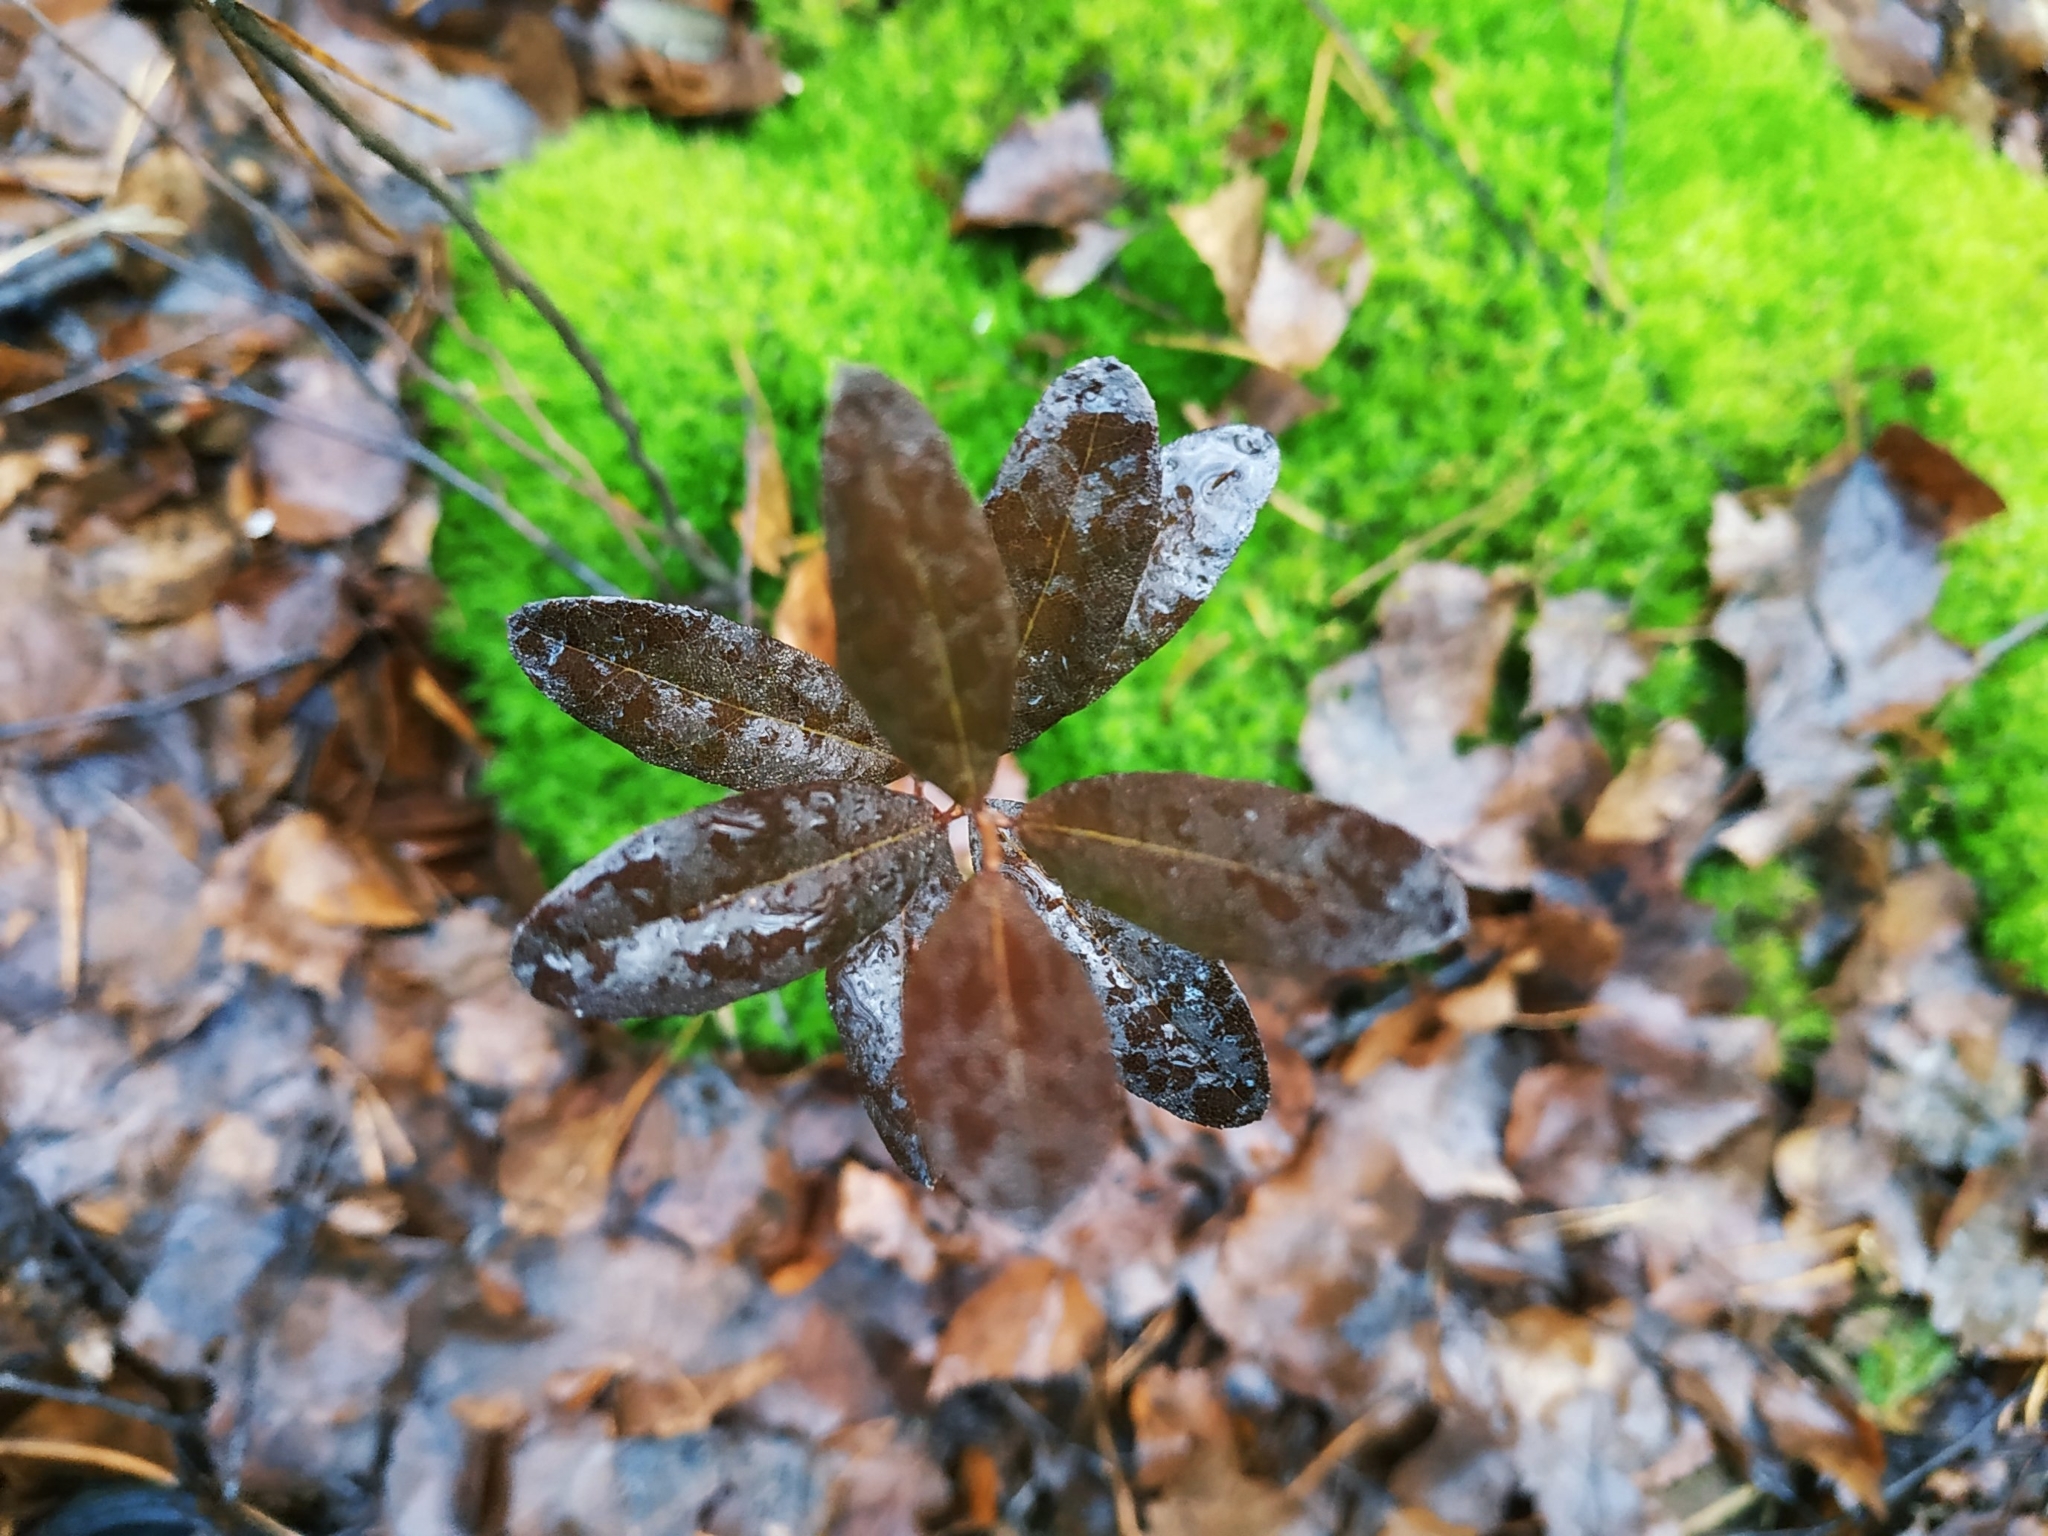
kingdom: Plantae
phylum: Tracheophyta
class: Magnoliopsida
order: Ericales
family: Ericaceae
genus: Chamaedaphne
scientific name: Chamaedaphne calyculata
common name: Leatherleaf
